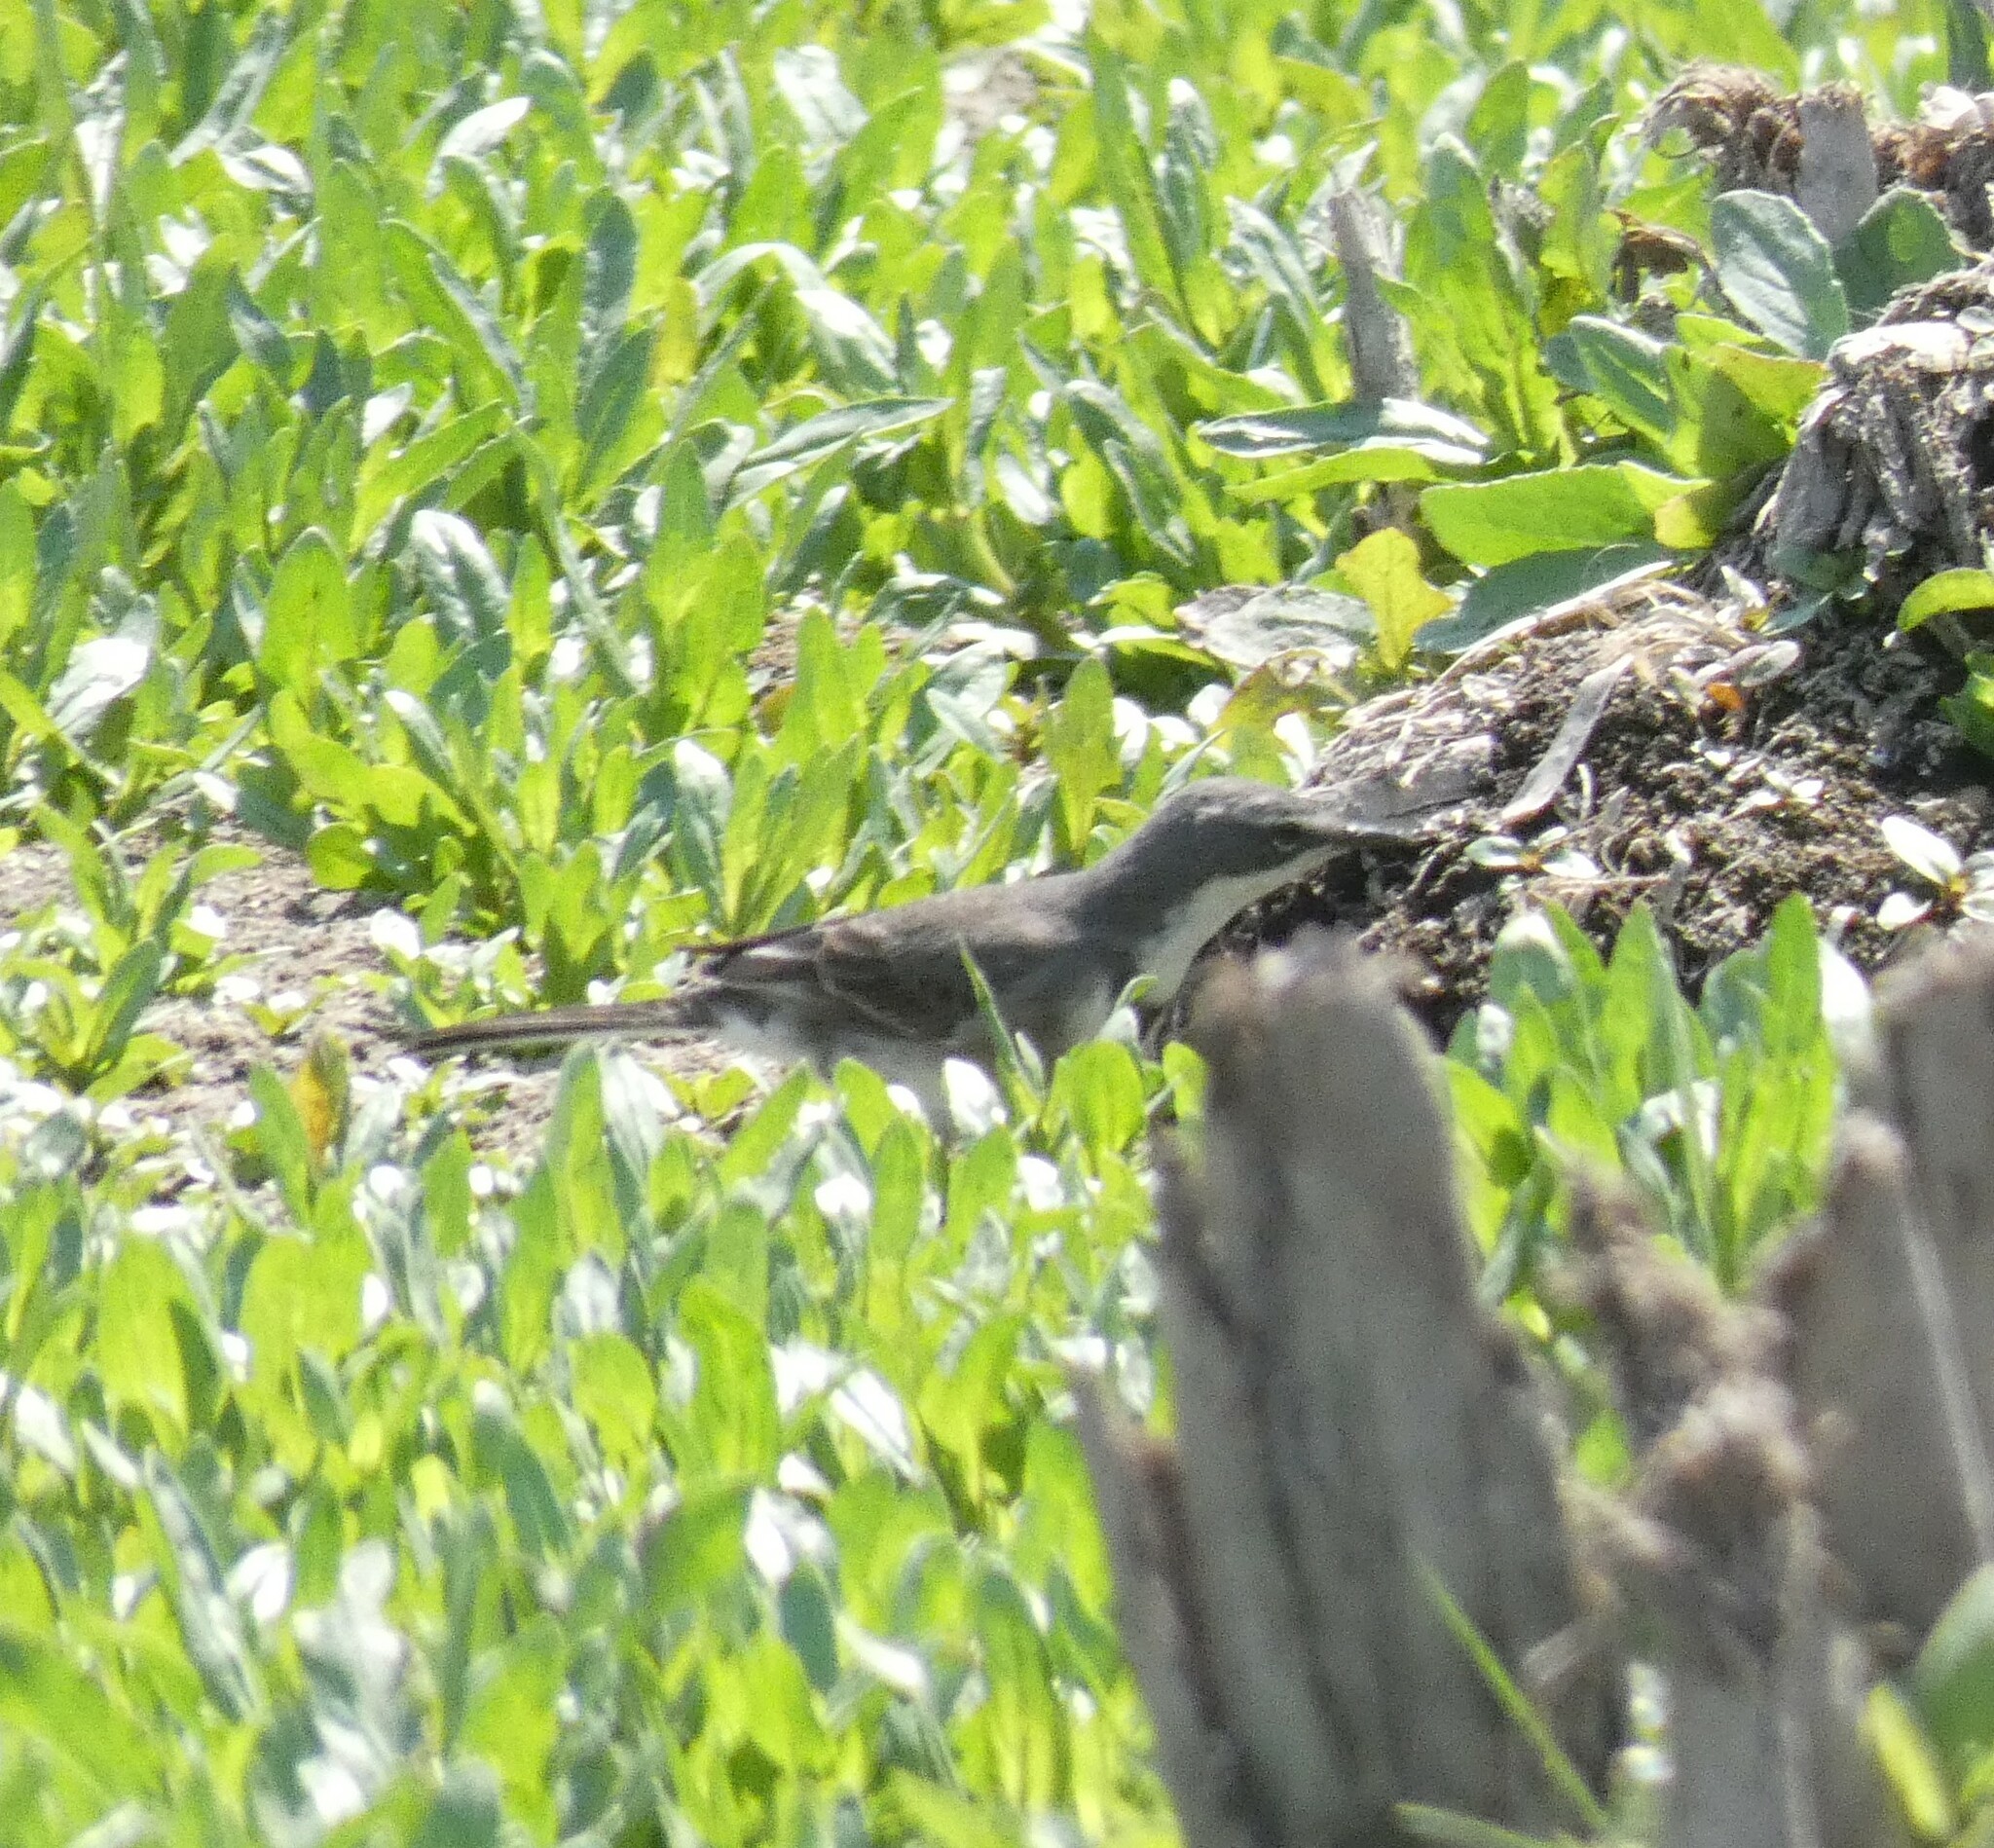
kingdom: Animalia
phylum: Chordata
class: Aves
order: Passeriformes
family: Motacillidae
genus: Motacilla
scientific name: Motacilla capensis
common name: Cape wagtail
